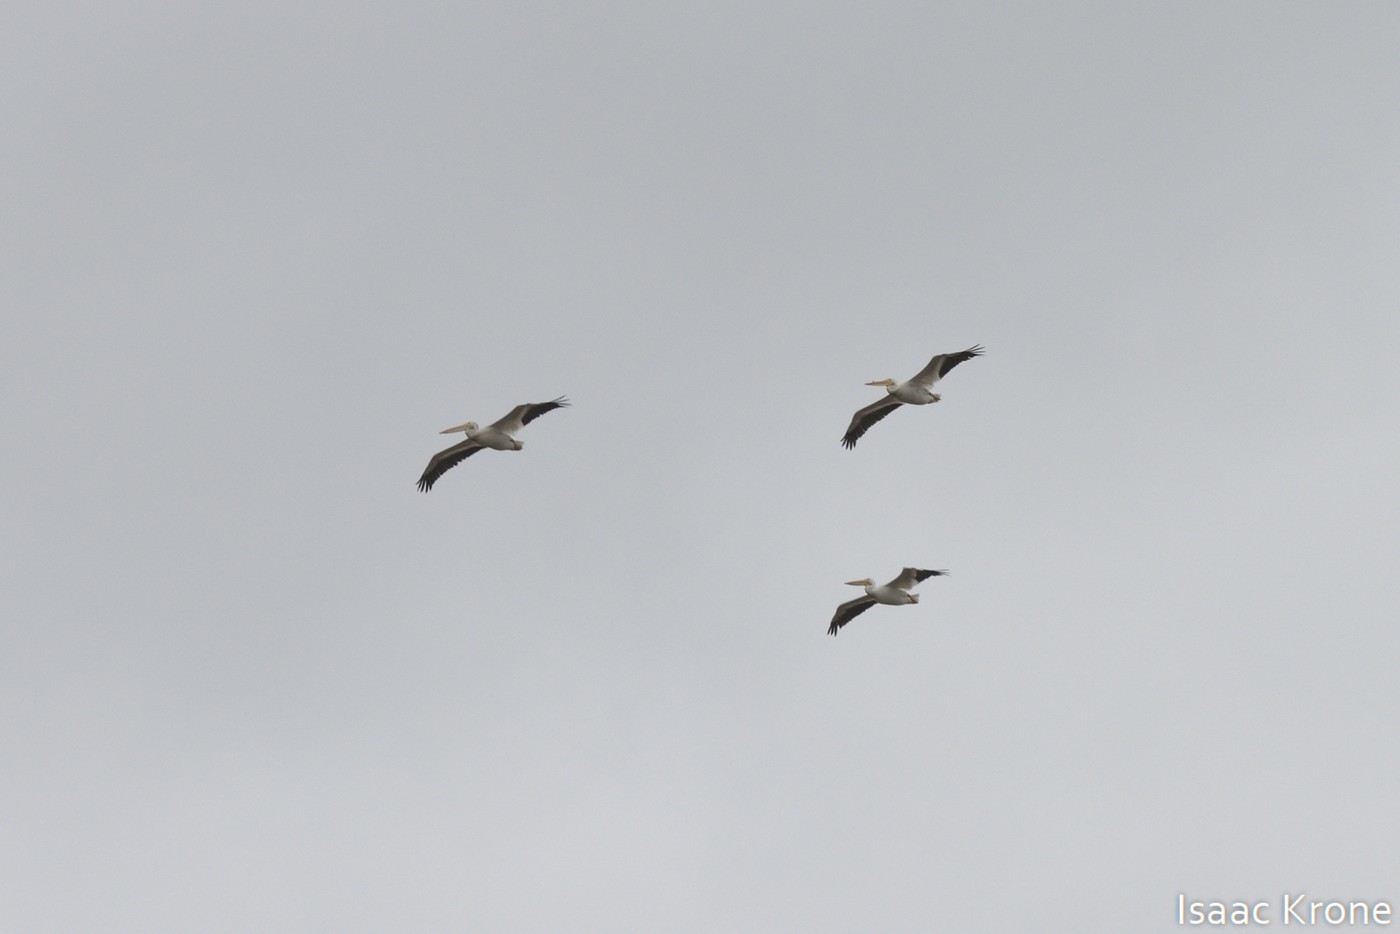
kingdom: Animalia
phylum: Chordata
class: Aves
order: Pelecaniformes
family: Pelecanidae
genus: Pelecanus
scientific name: Pelecanus erythrorhynchos
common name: American white pelican
